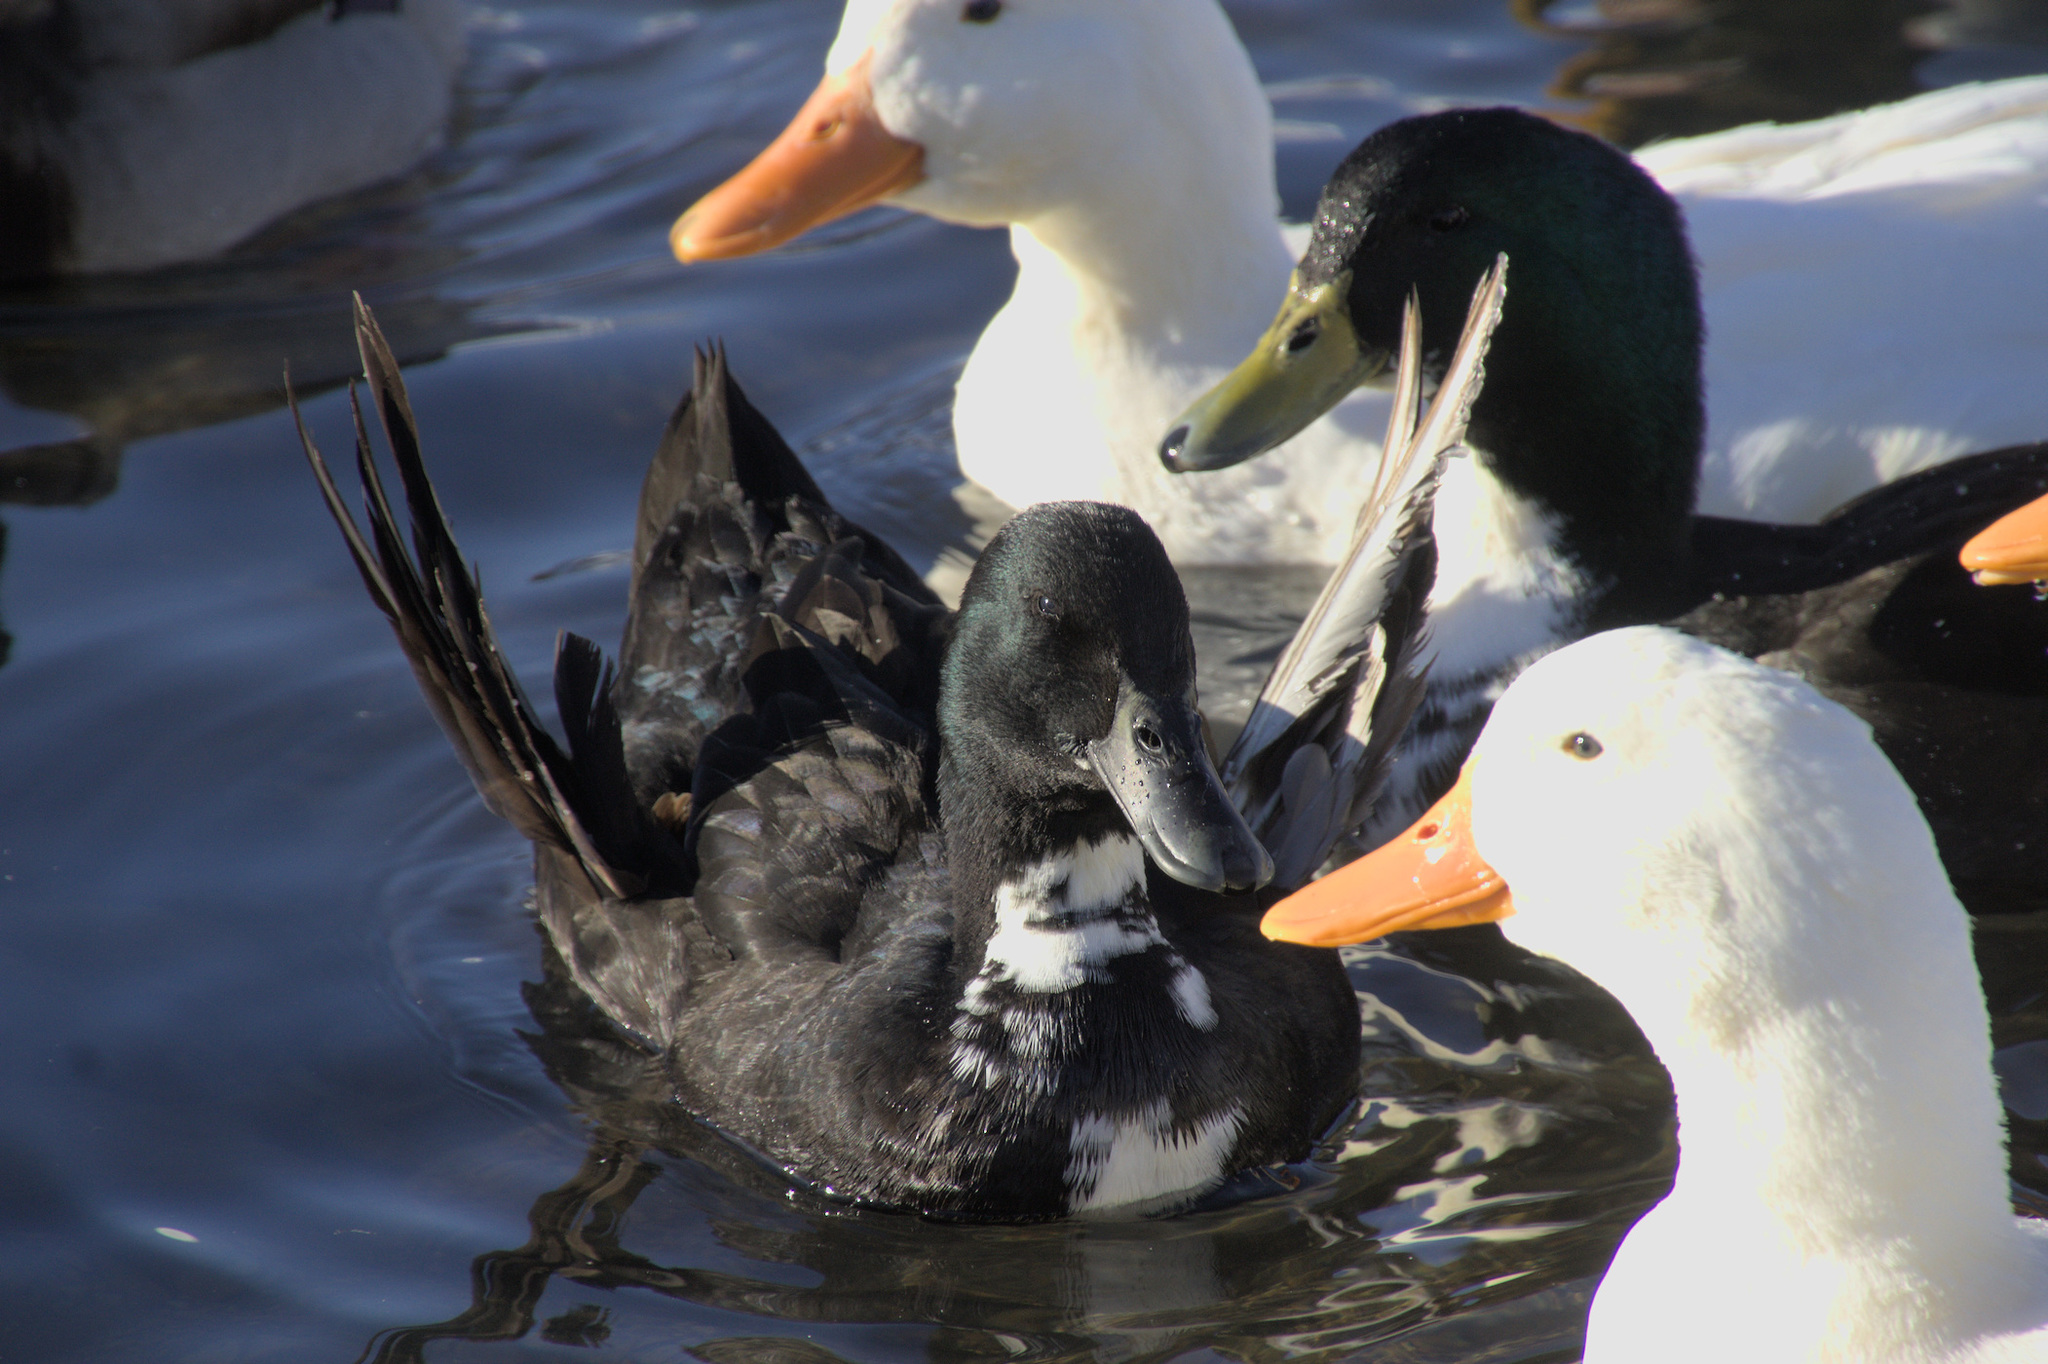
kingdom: Animalia
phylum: Chordata
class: Aves
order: Anseriformes
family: Anatidae
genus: Anas
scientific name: Anas platyrhynchos
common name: Mallard
